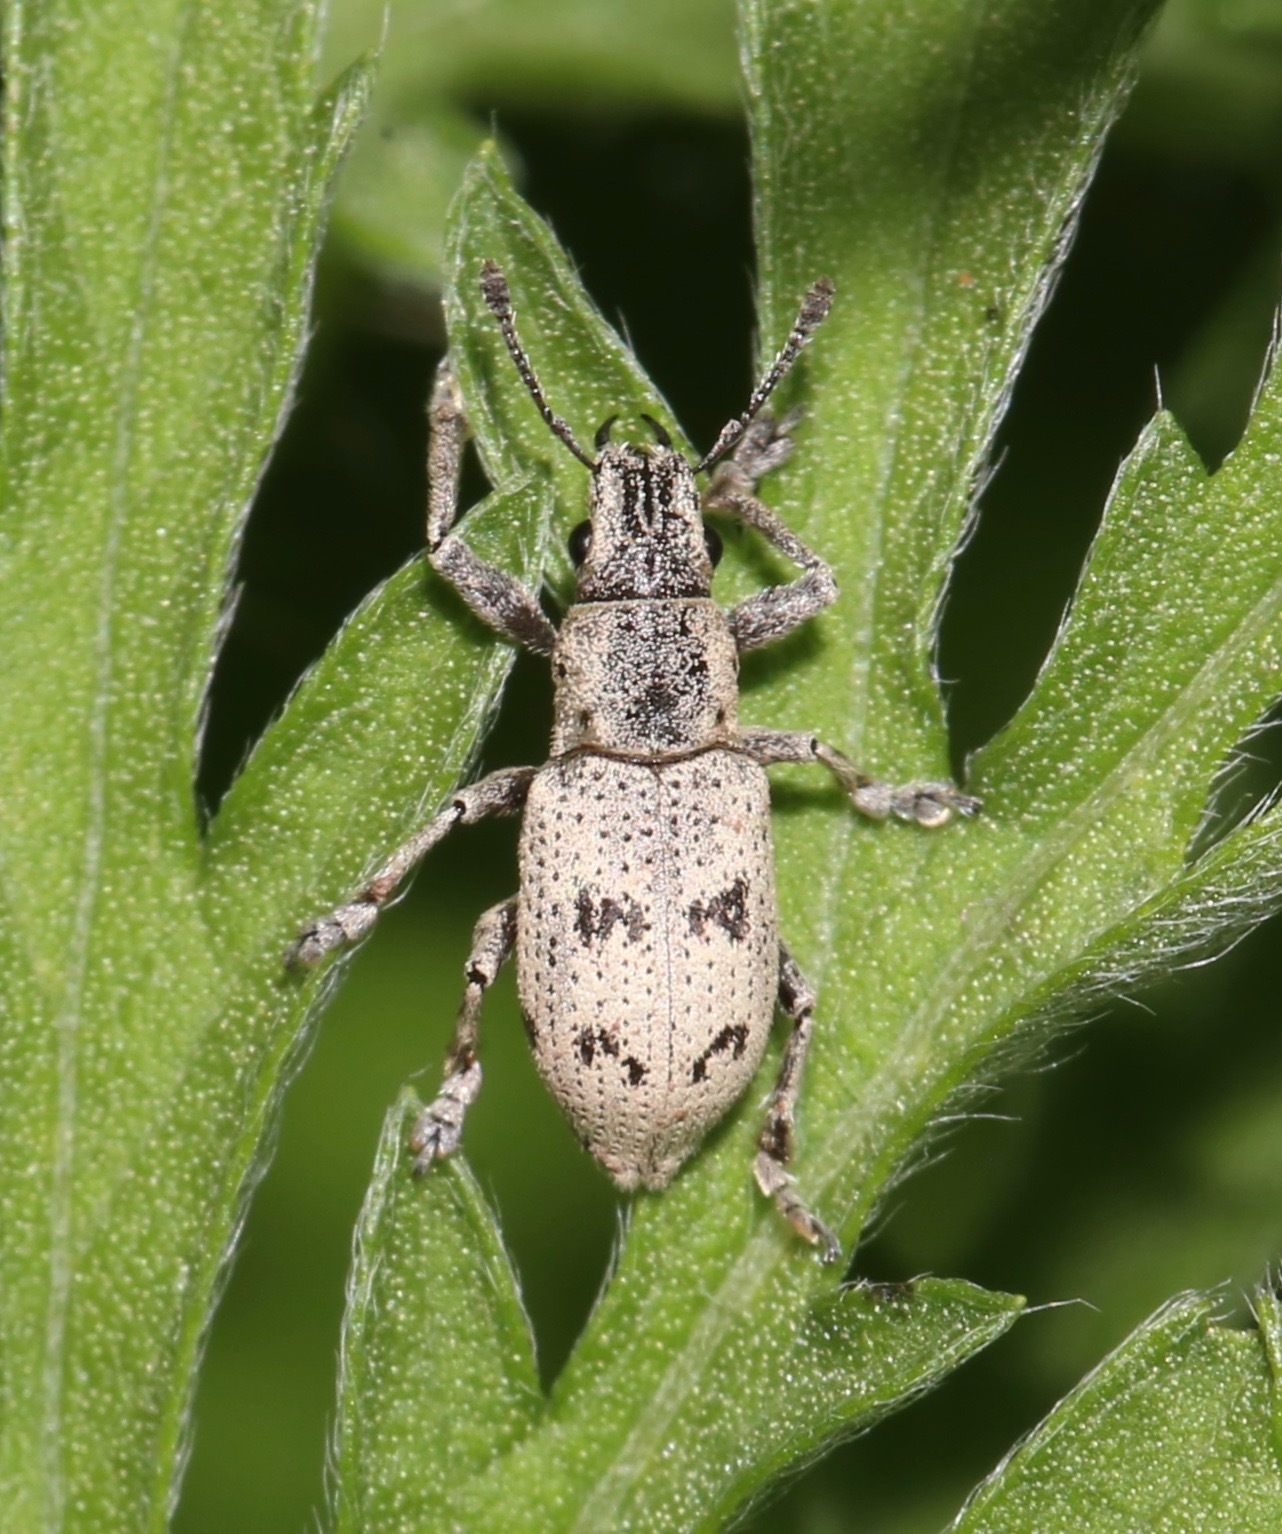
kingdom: Animalia
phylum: Arthropoda
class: Insecta
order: Coleoptera
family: Curculionidae
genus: Ericydeus
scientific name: Ericydeus lautus
